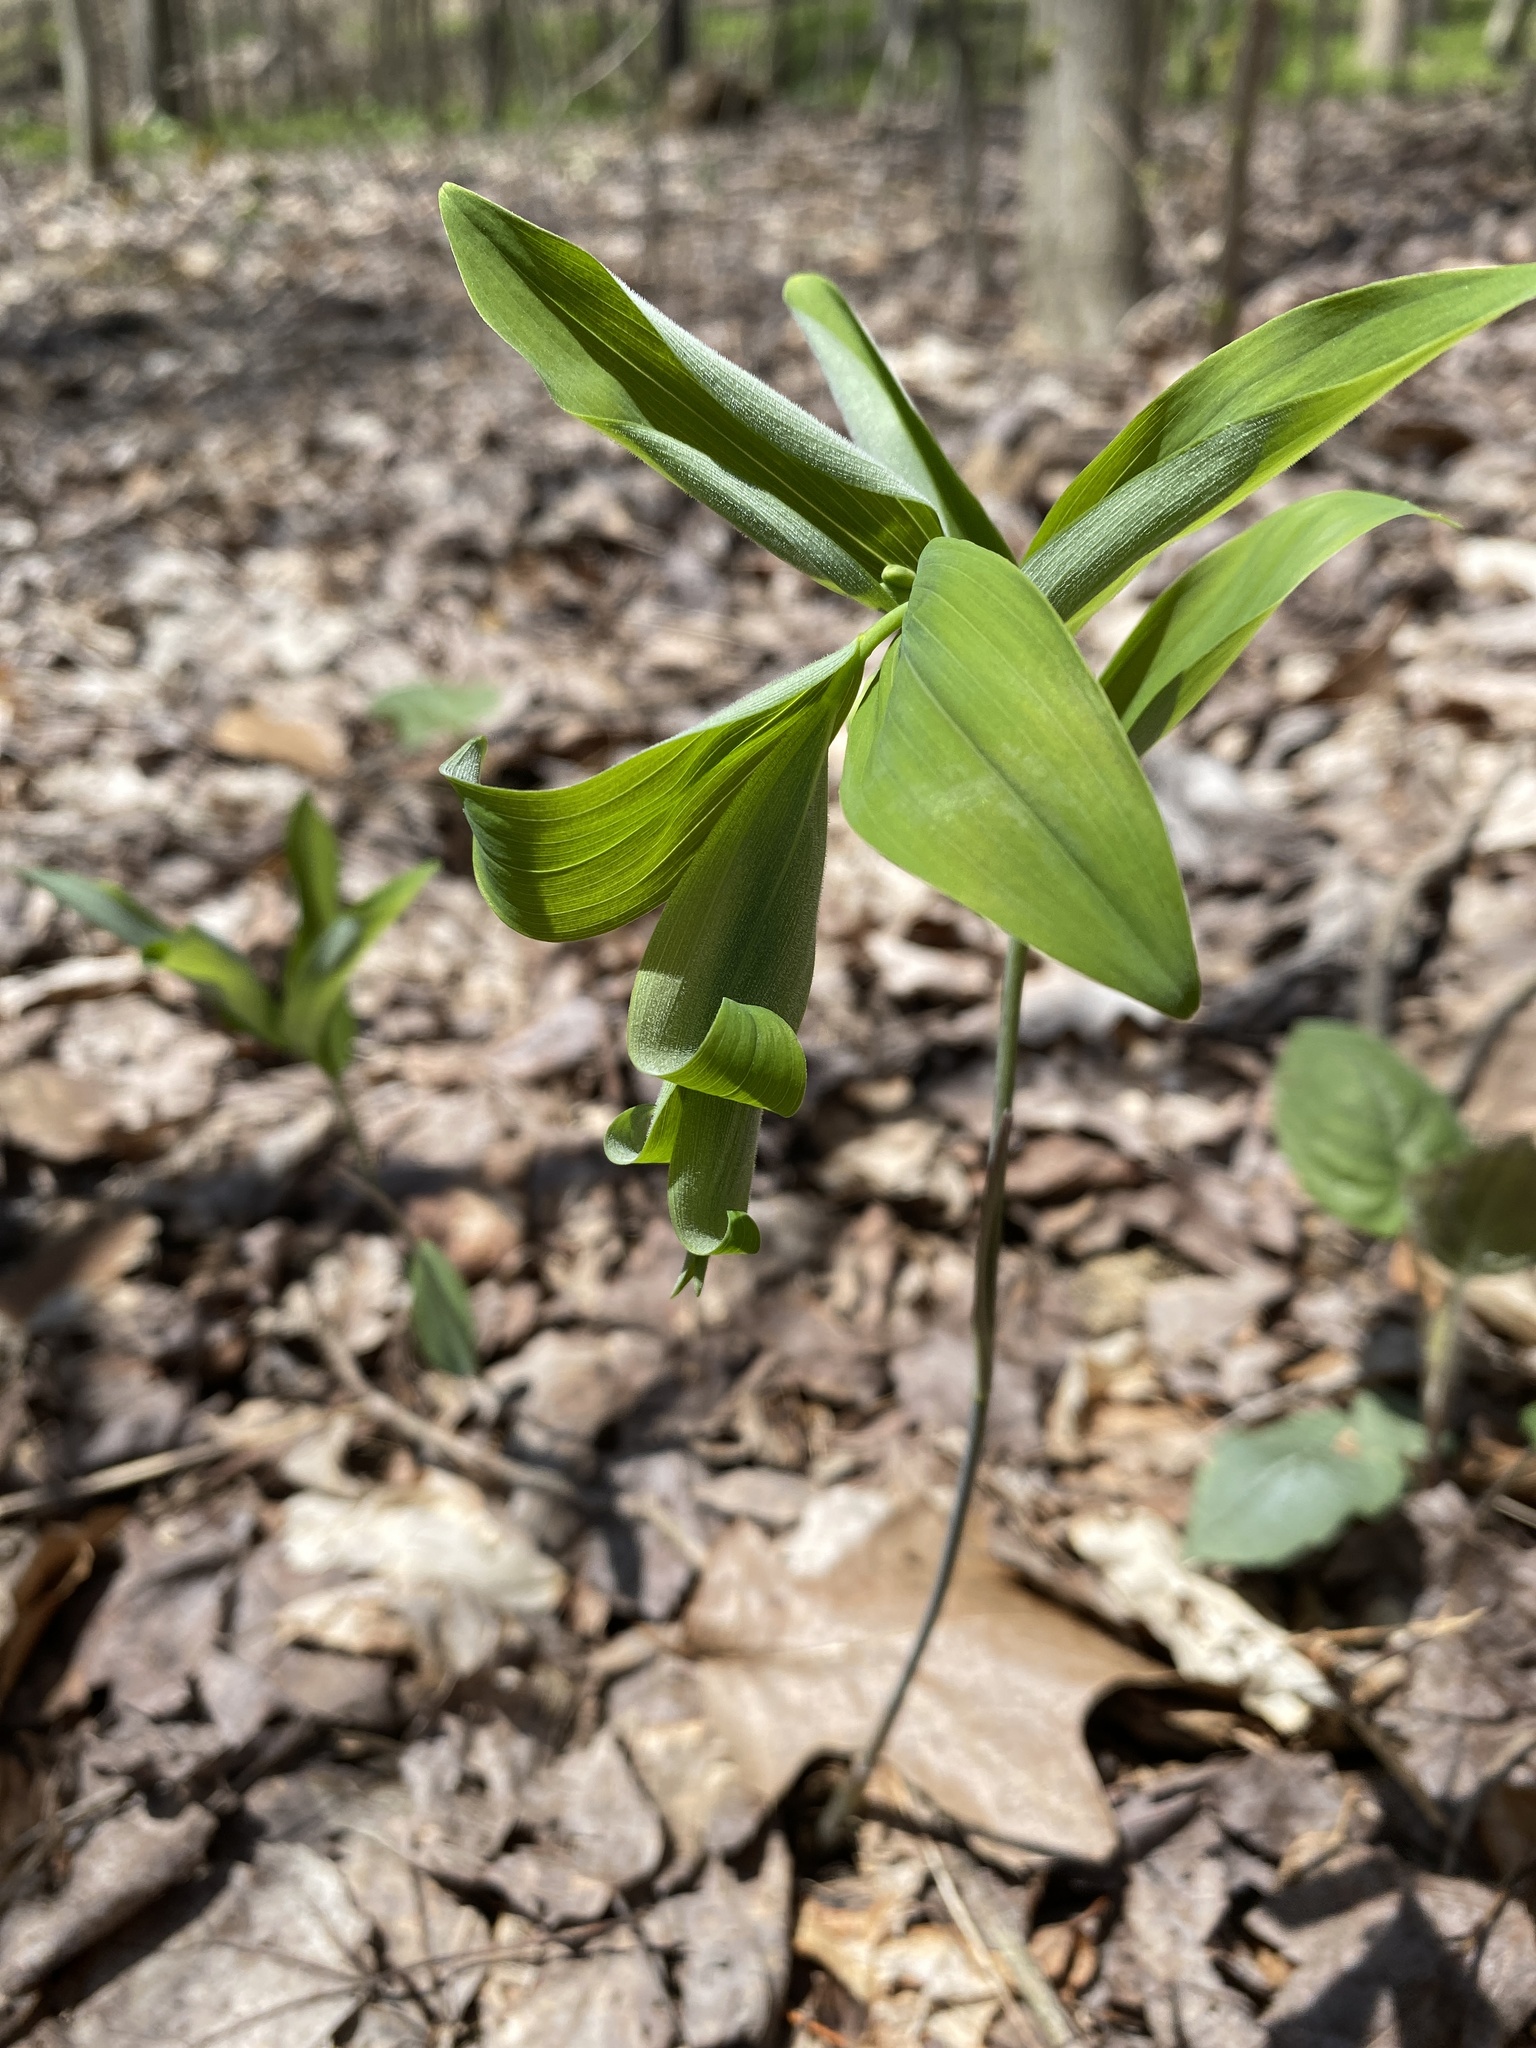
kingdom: Plantae
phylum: Tracheophyta
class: Liliopsida
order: Asparagales
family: Asparagaceae
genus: Polygonatum
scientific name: Polygonatum pubescens
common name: Downy solomon's seal
